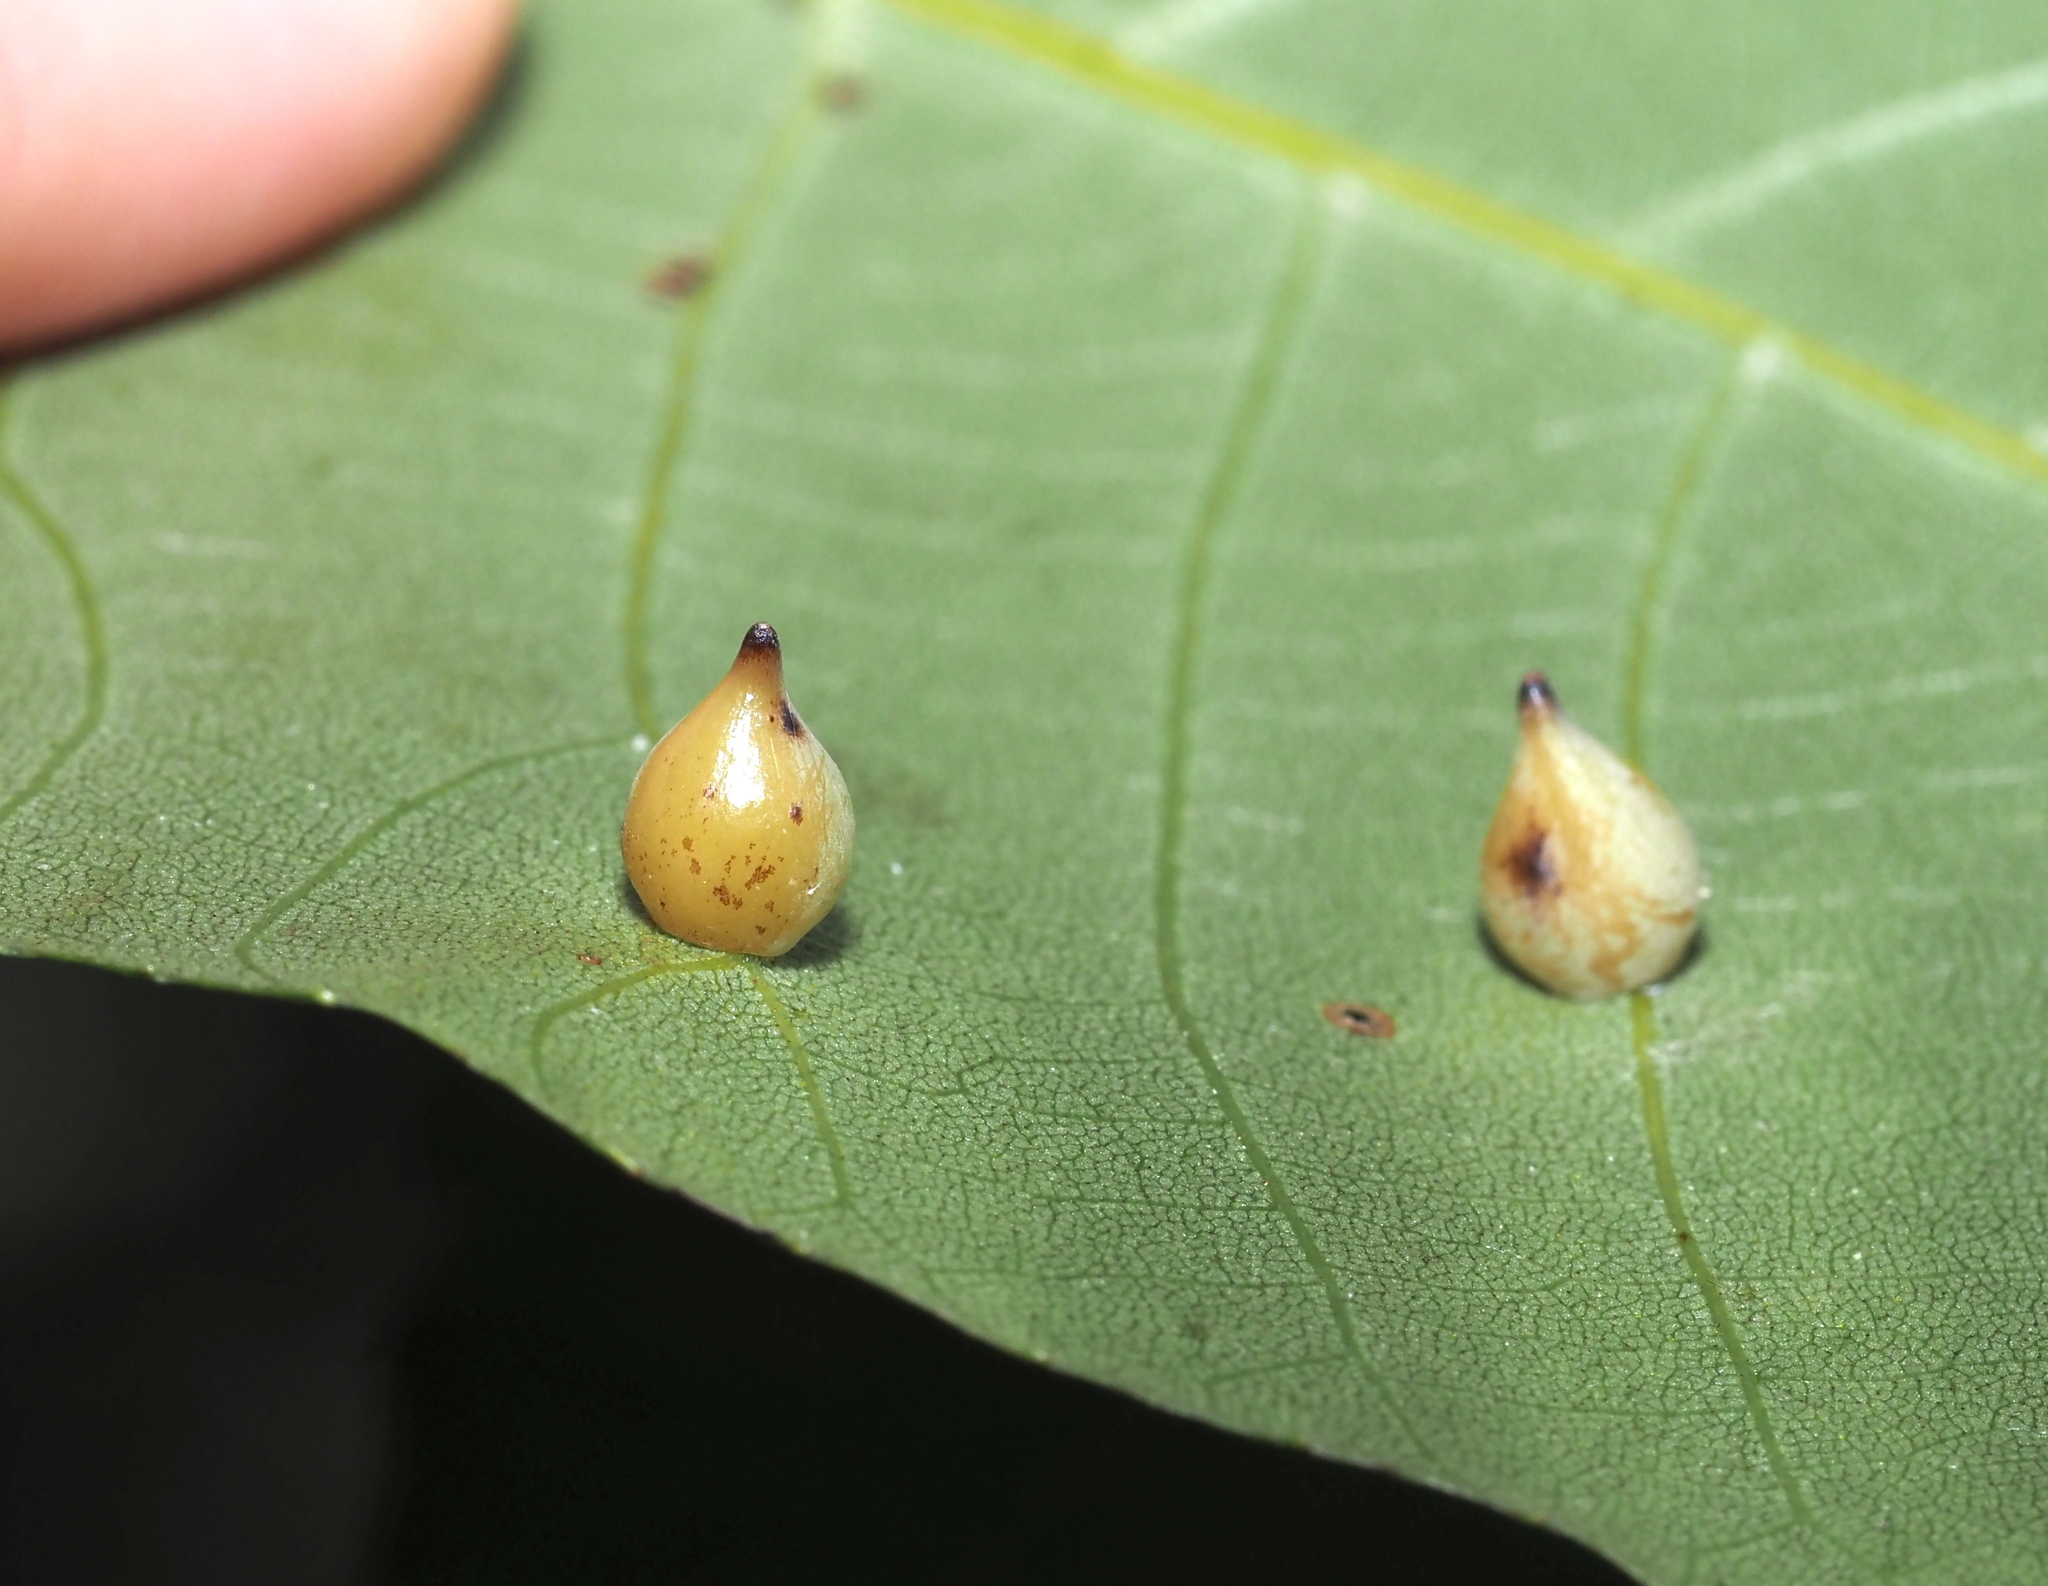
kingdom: Animalia
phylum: Arthropoda
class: Insecta
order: Diptera
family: Cecidomyiidae
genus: Caryomyia
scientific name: Caryomyia caryaecola
